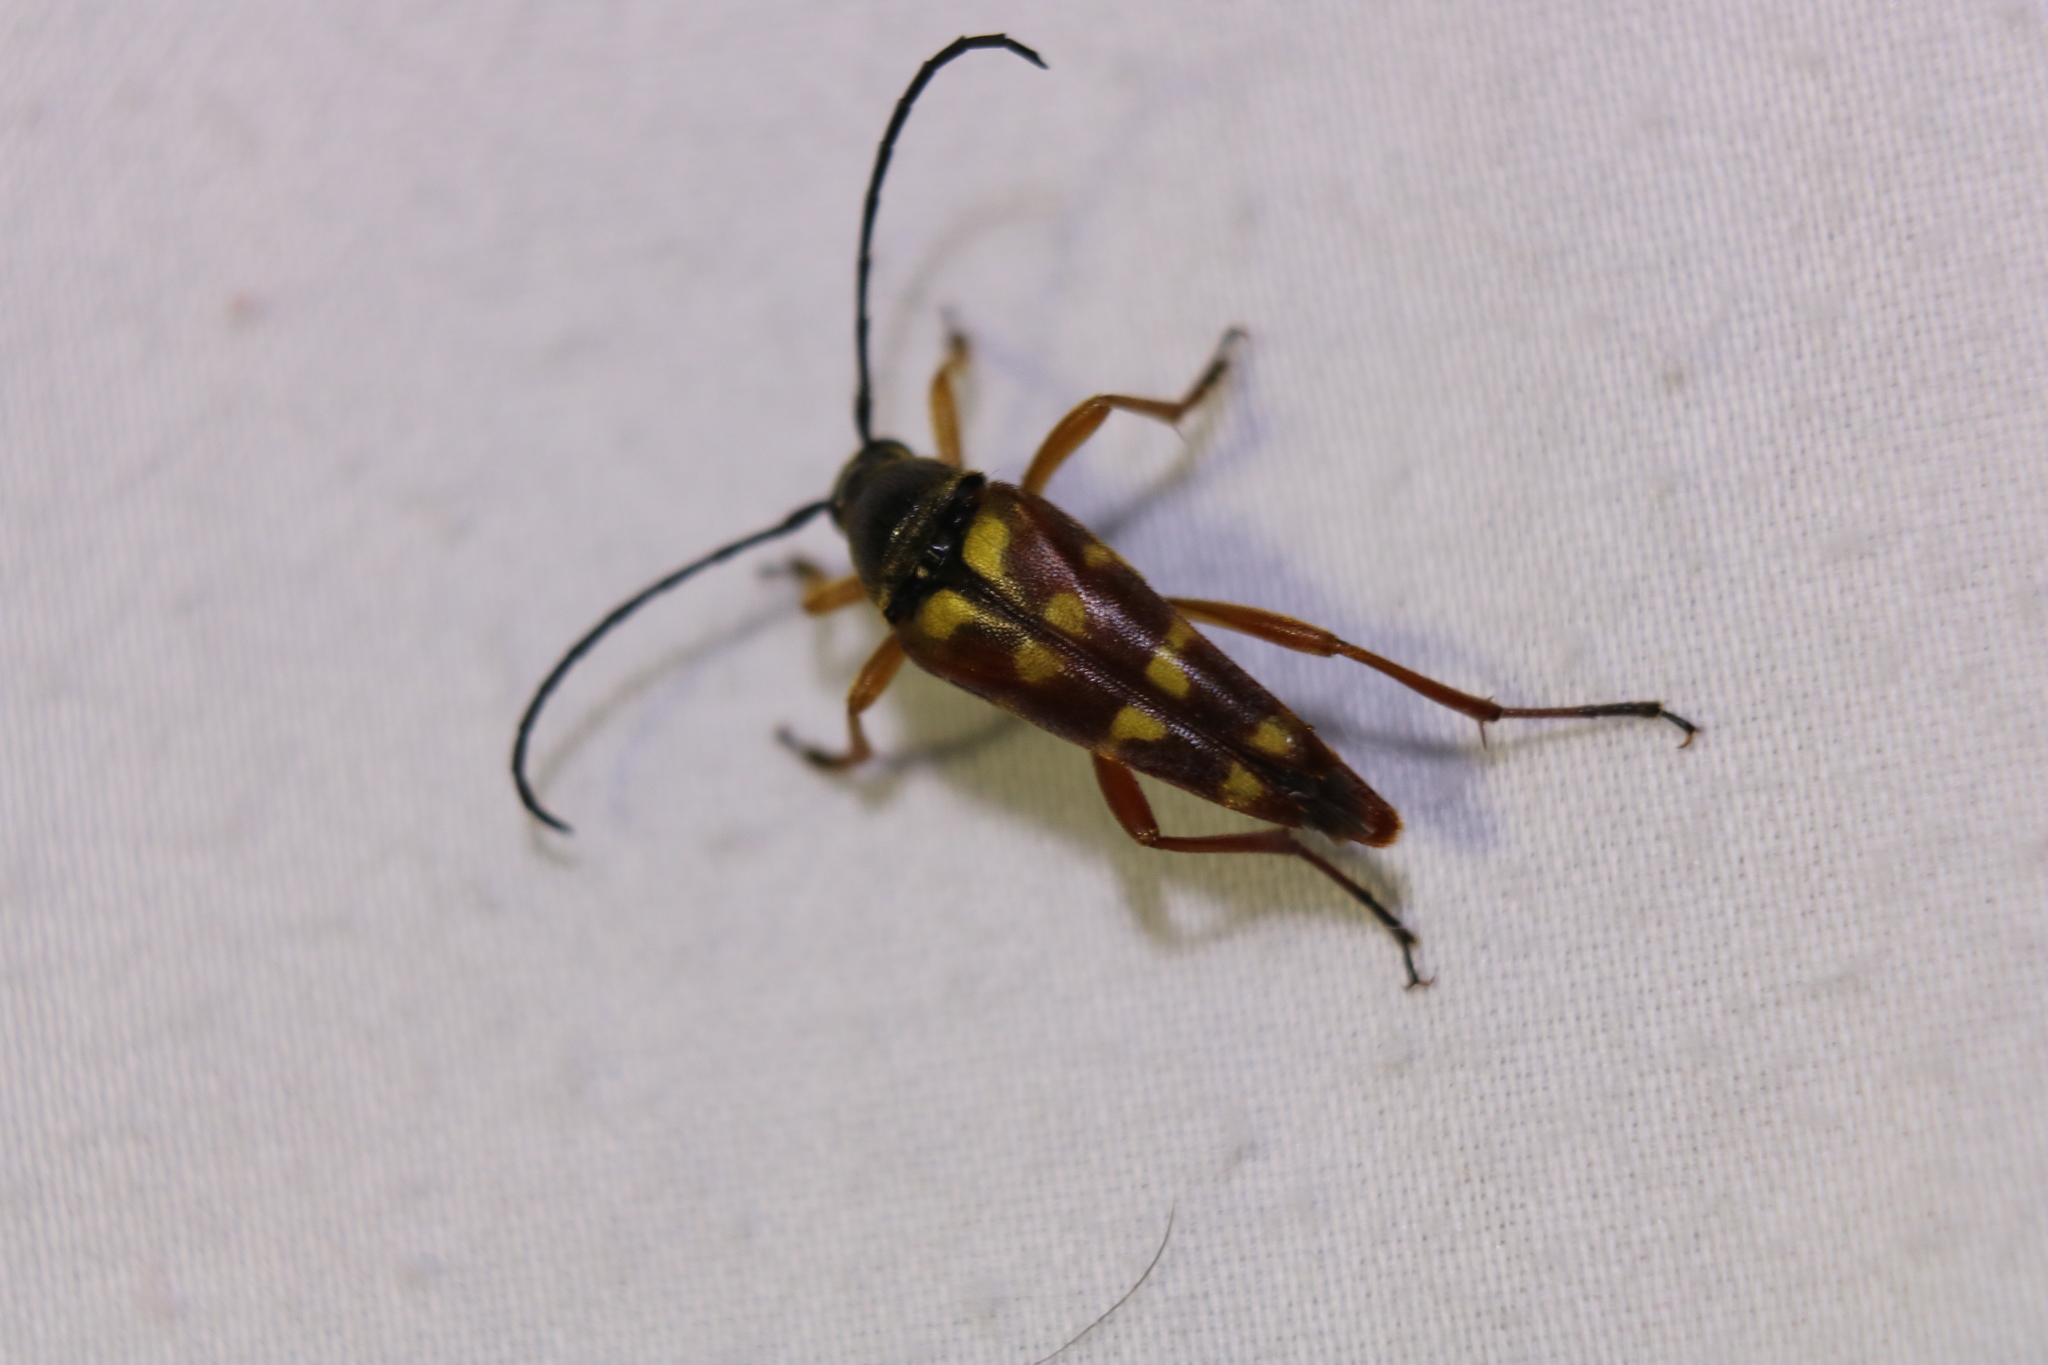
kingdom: Animalia
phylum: Arthropoda
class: Insecta
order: Coleoptera
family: Cerambycidae
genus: Typocerus
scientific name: Typocerus velutinus
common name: Banded longhorn beetle
